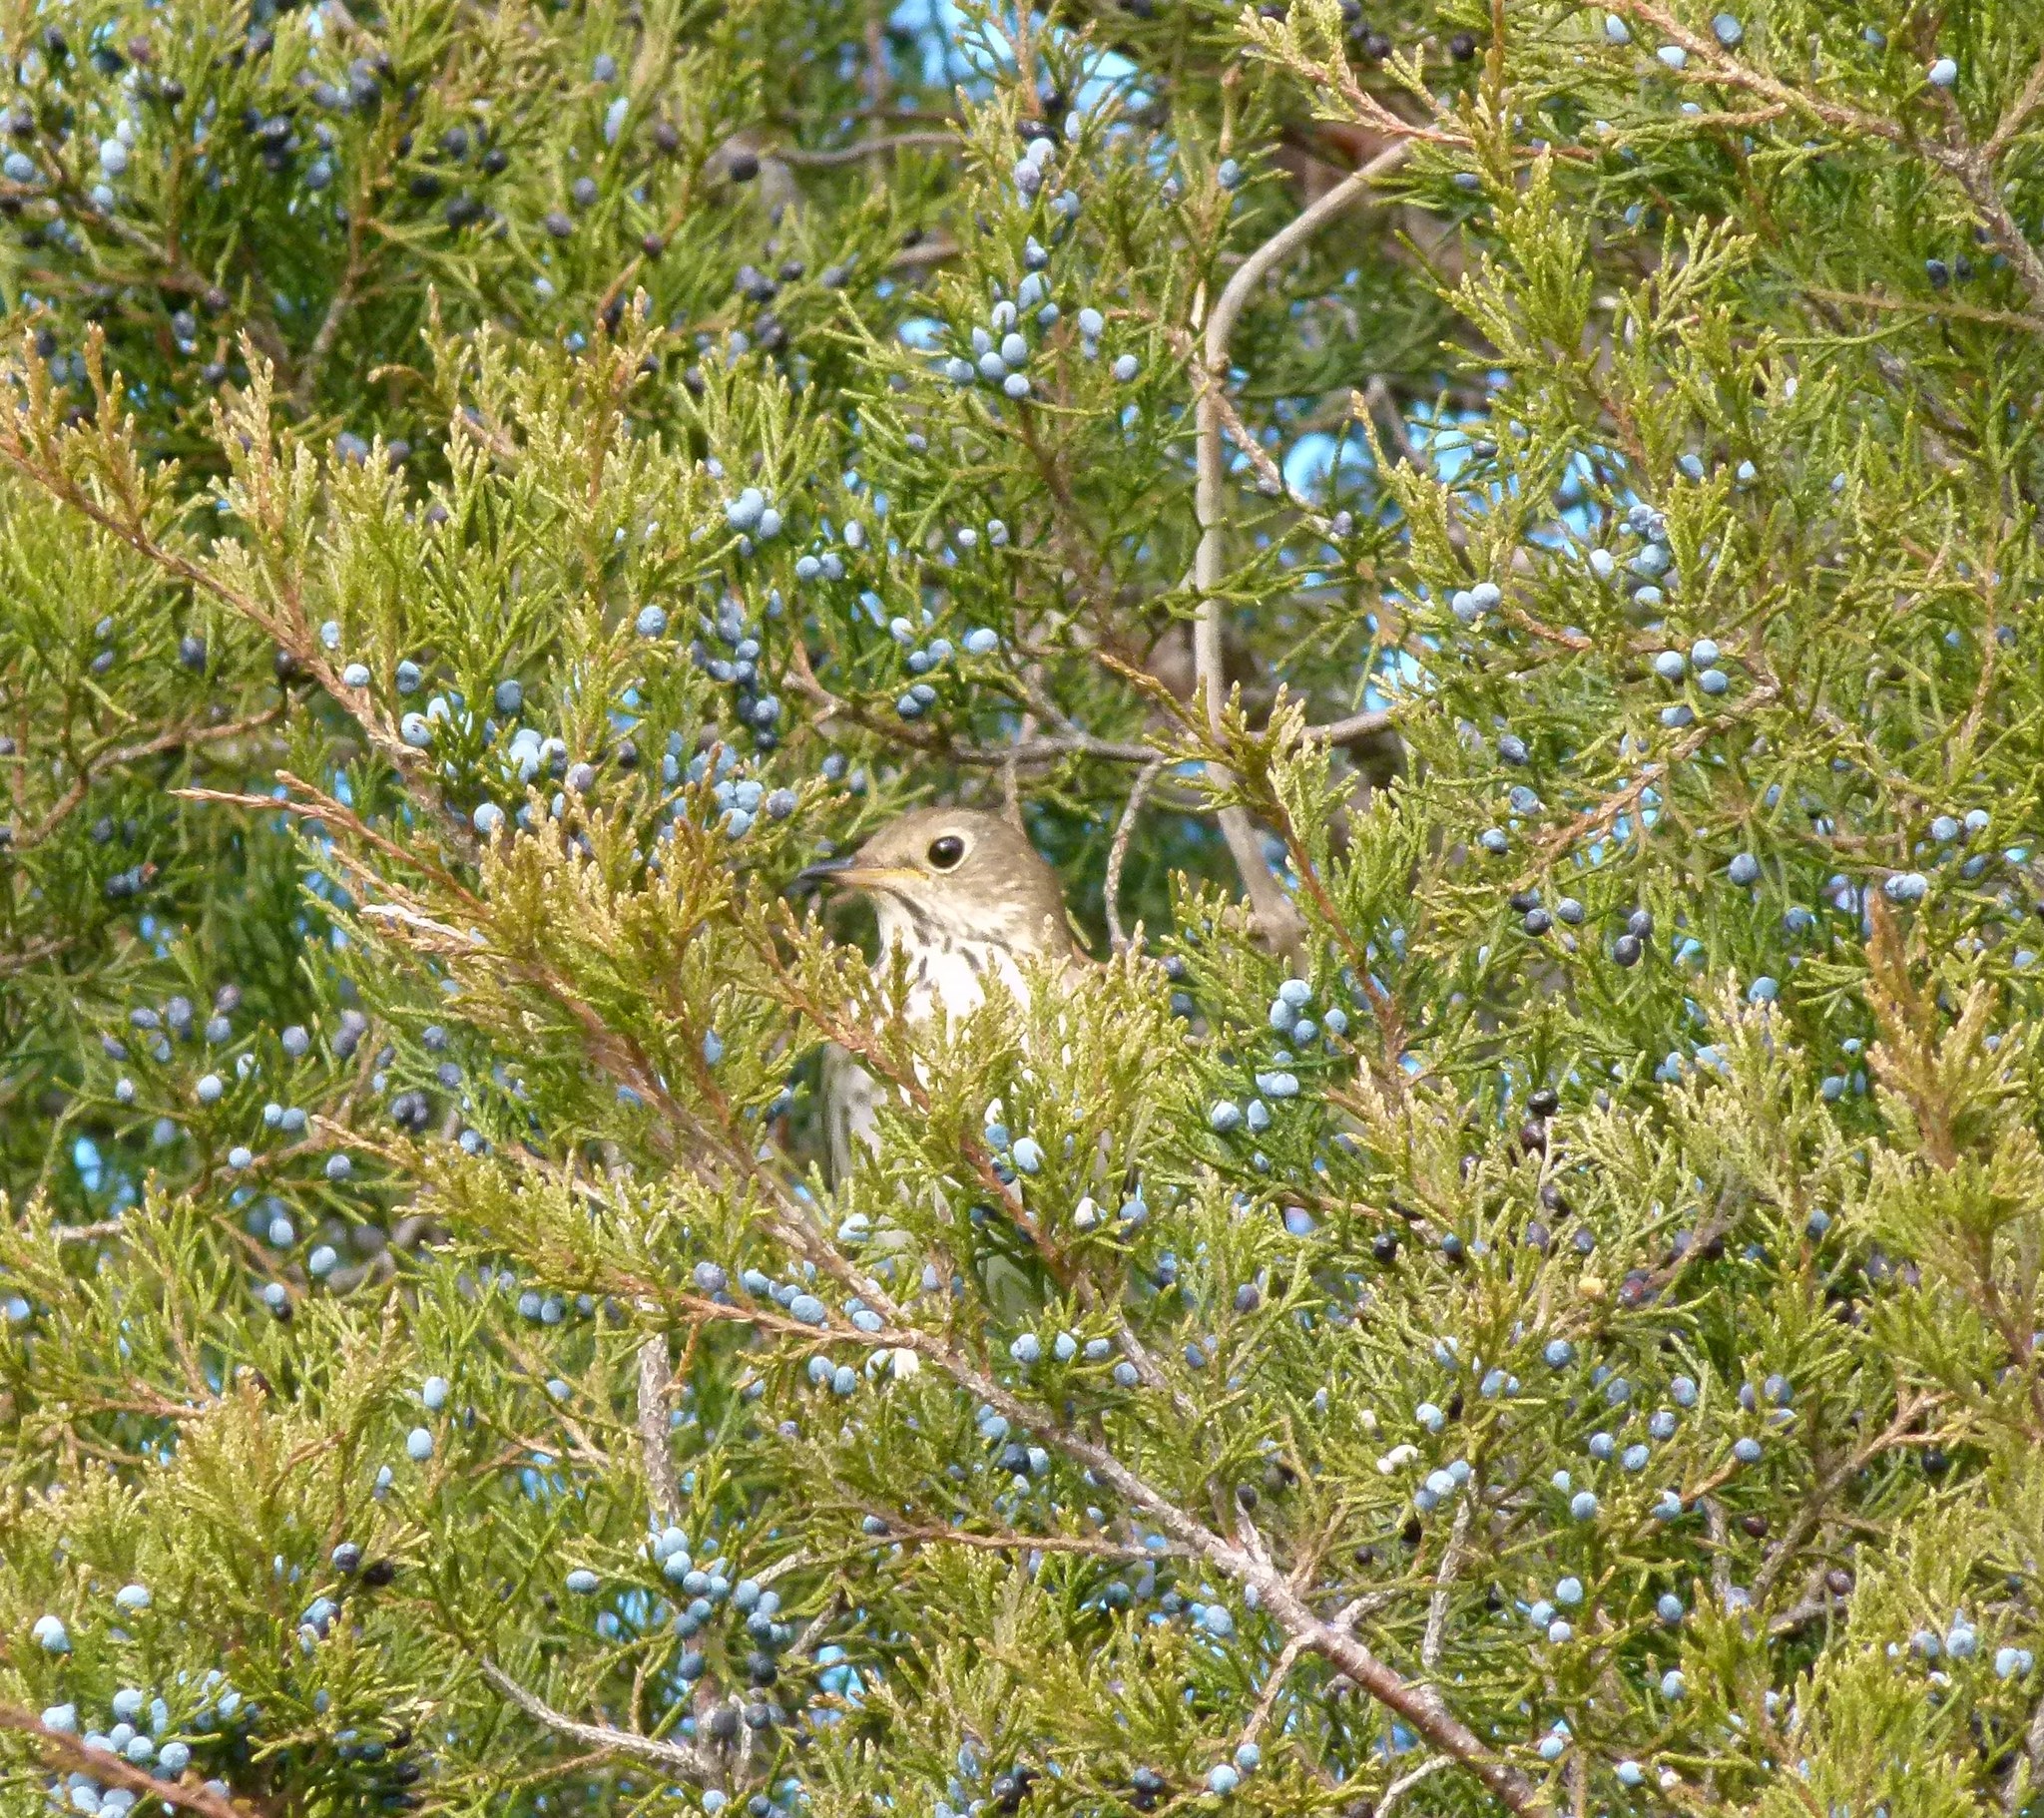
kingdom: Animalia
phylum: Chordata
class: Aves
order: Passeriformes
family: Turdidae
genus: Catharus
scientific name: Catharus guttatus
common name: Hermit thrush
